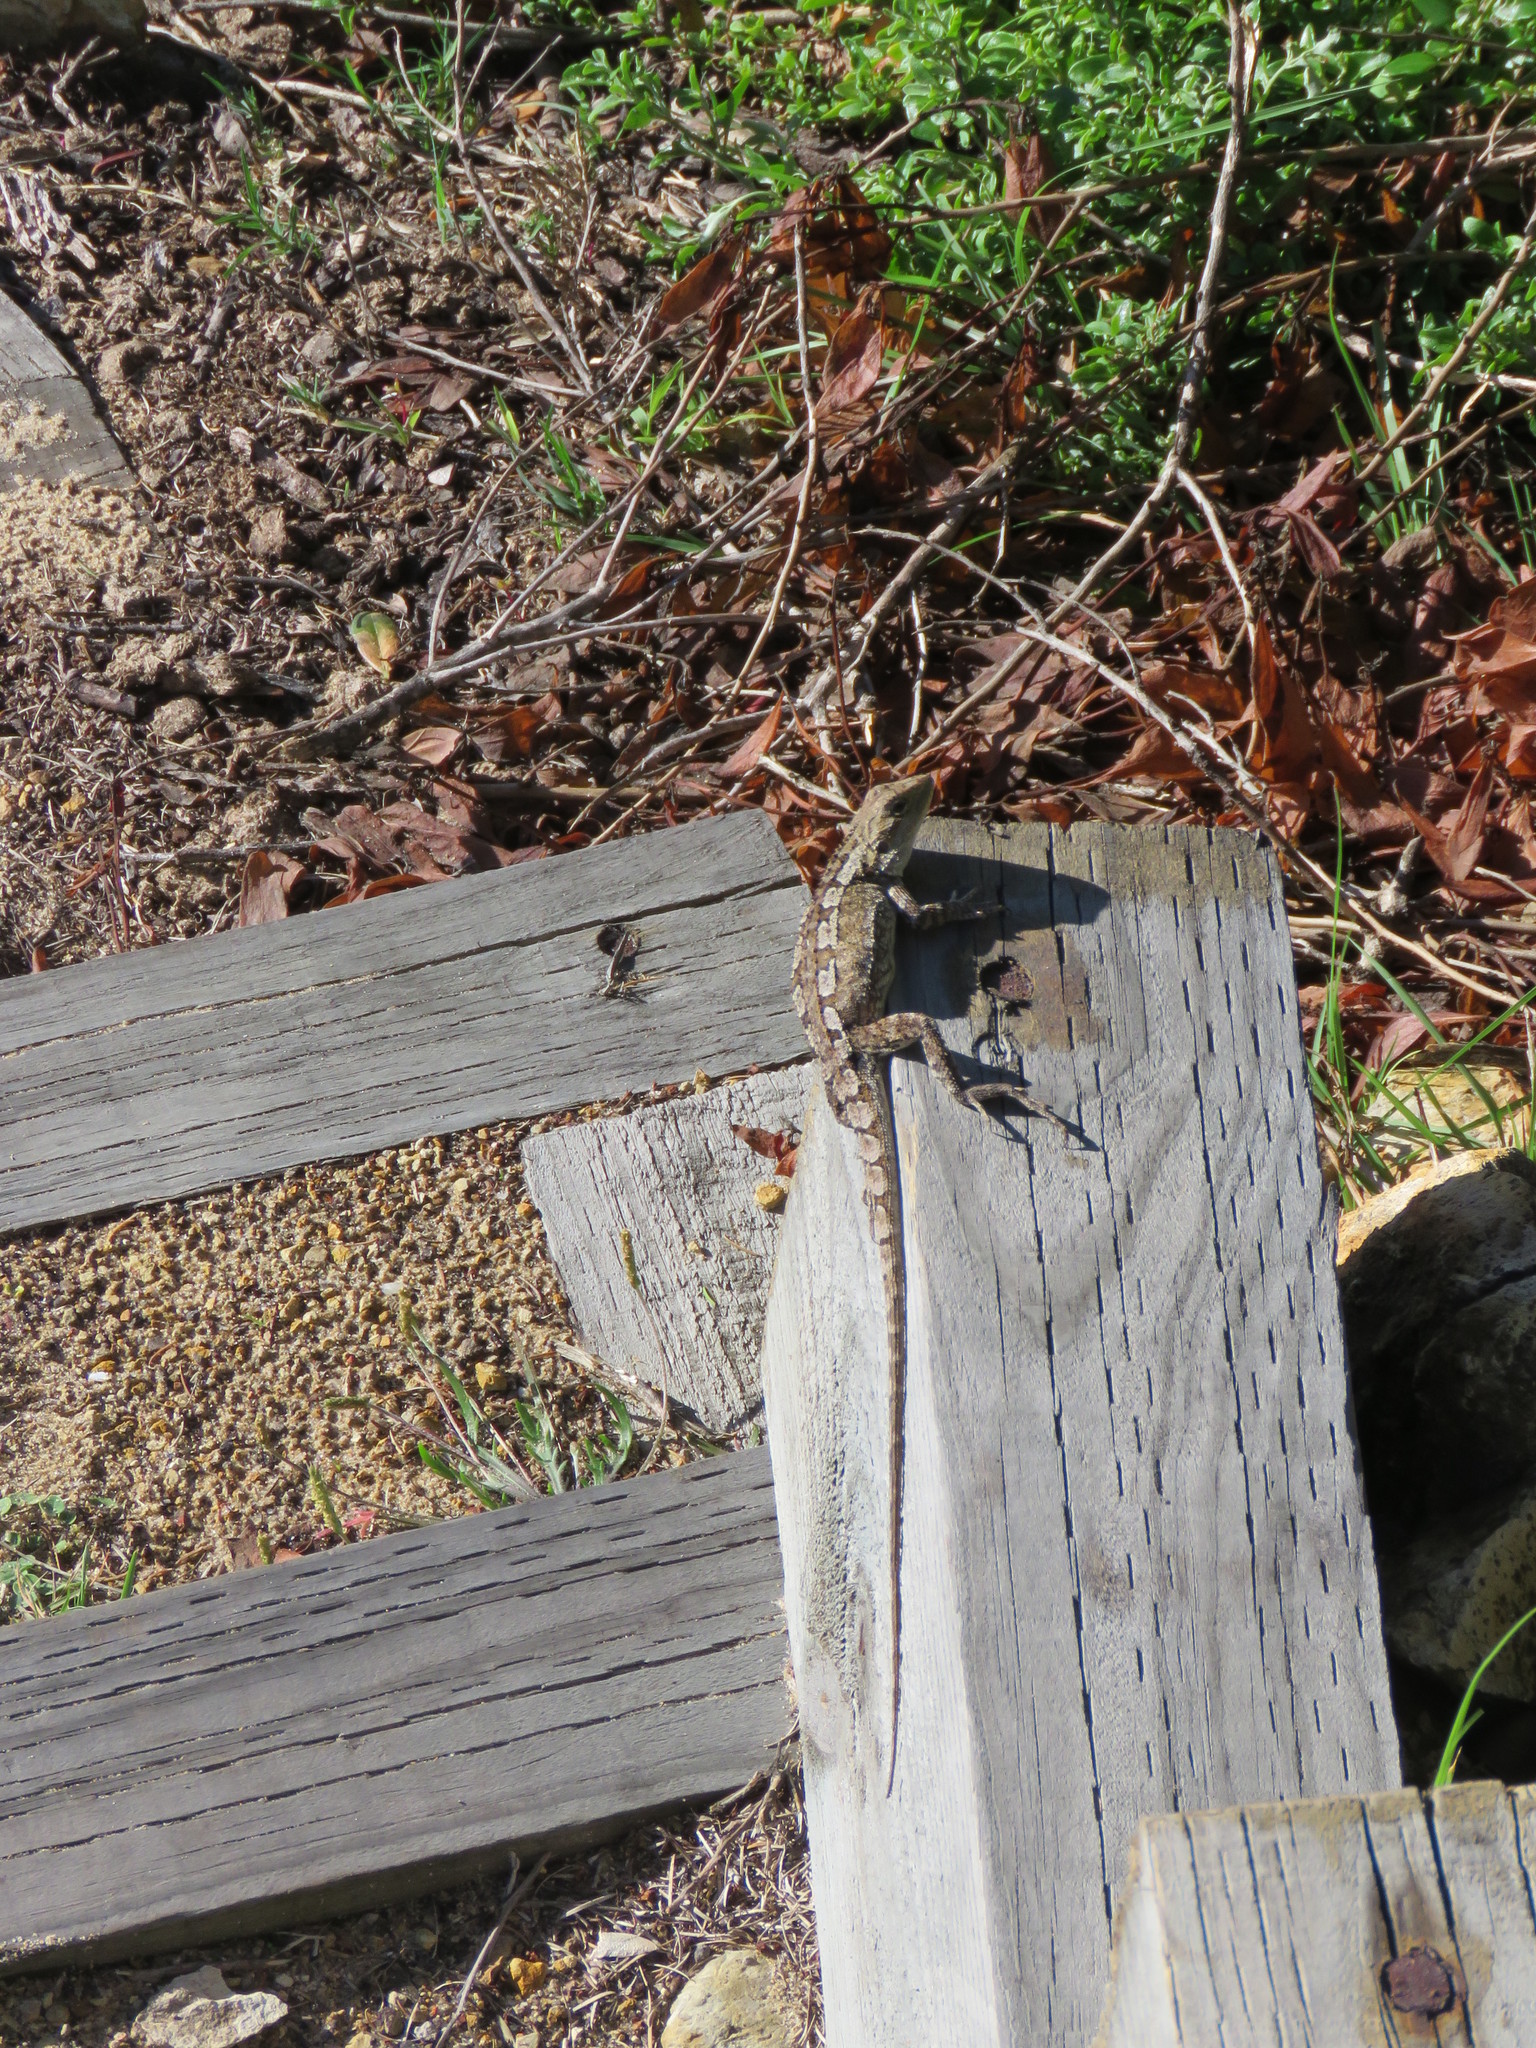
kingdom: Animalia
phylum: Chordata
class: Squamata
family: Agamidae
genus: Amphibolurus
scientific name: Amphibolurus muricatus
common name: Jacky lizard
